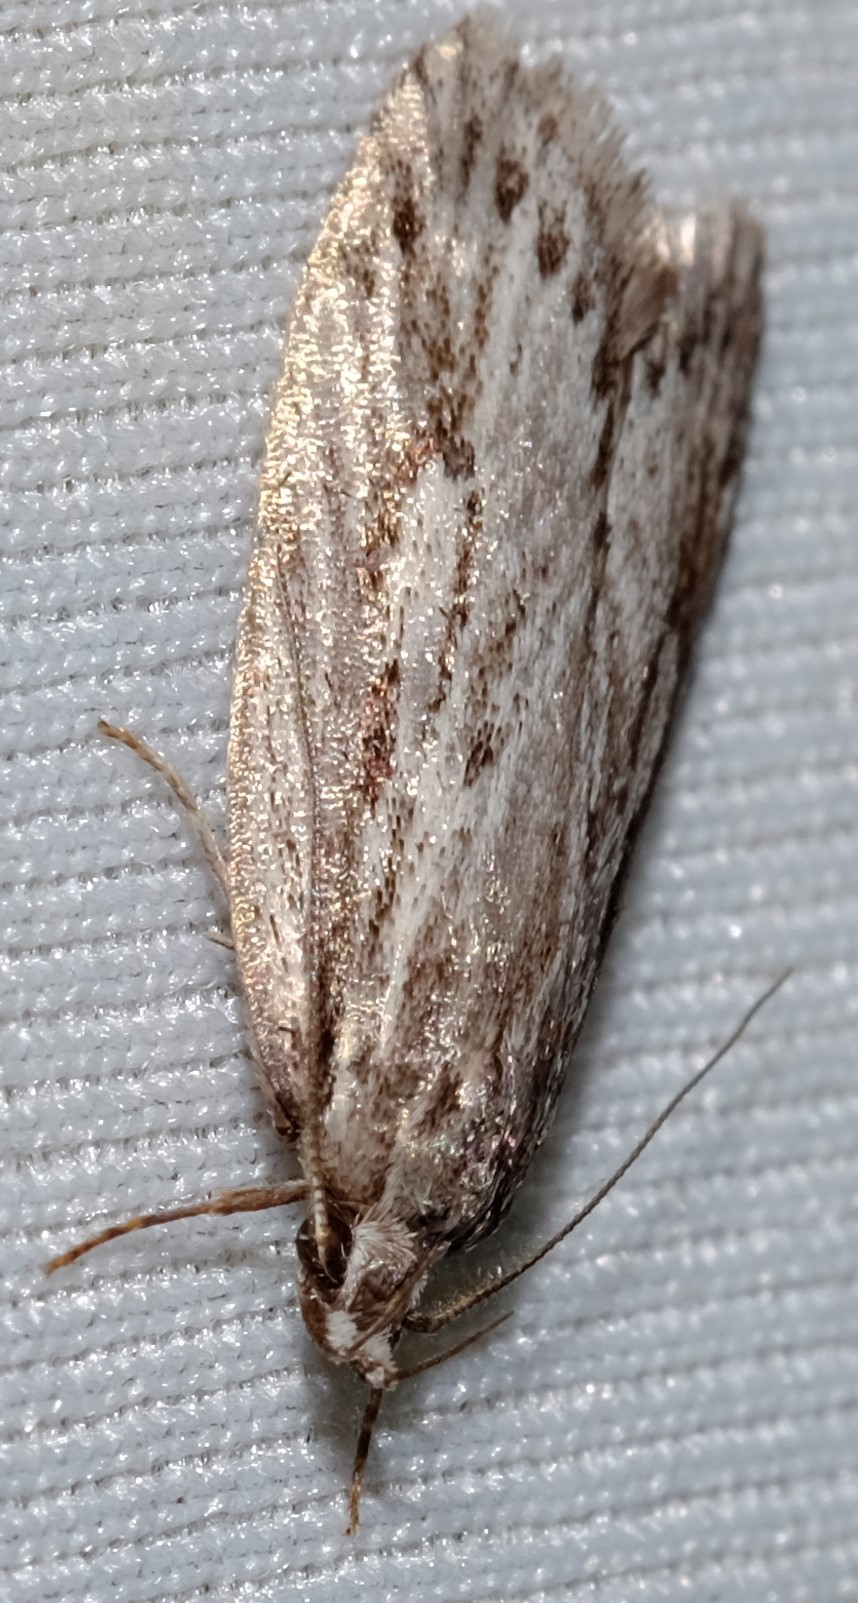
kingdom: Animalia
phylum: Arthropoda
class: Insecta
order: Lepidoptera
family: Oecophoridae
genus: Anomozancla
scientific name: Anomozancla scopariella
